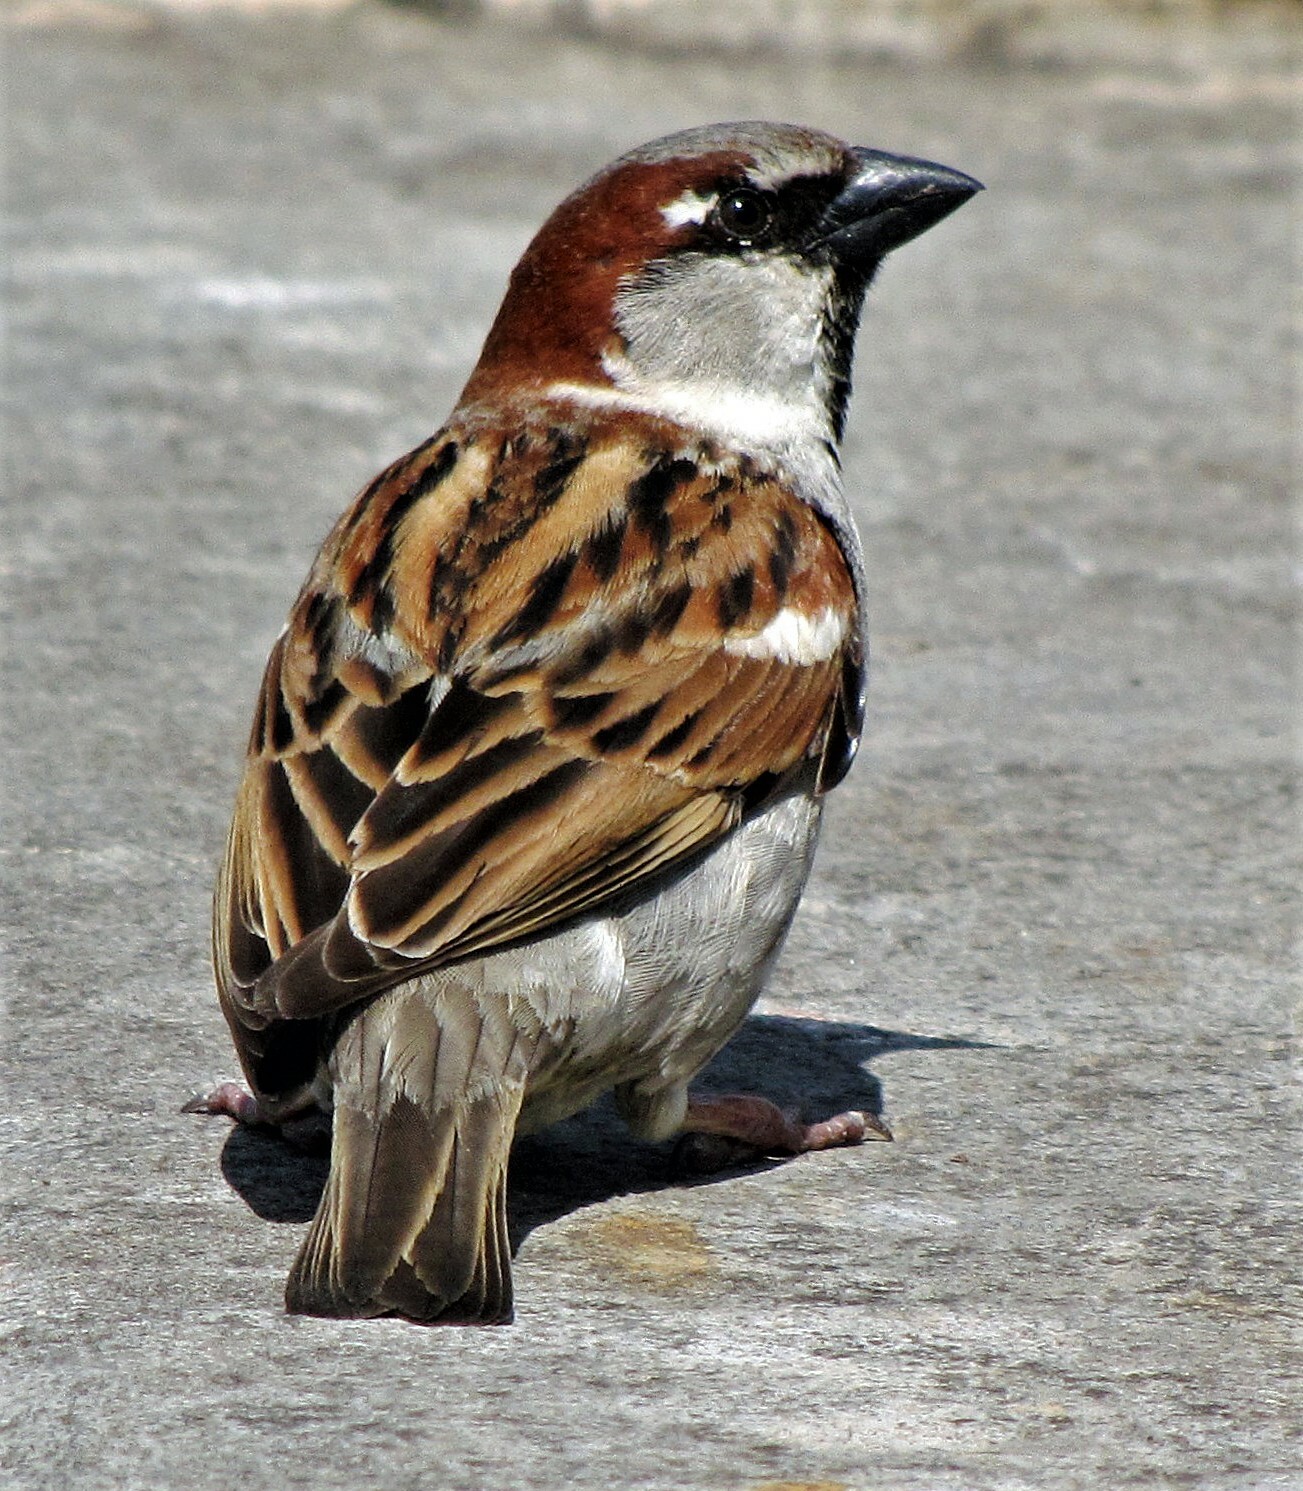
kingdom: Animalia
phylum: Chordata
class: Aves
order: Passeriformes
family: Passeridae
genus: Passer
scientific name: Passer domesticus
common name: House sparrow
